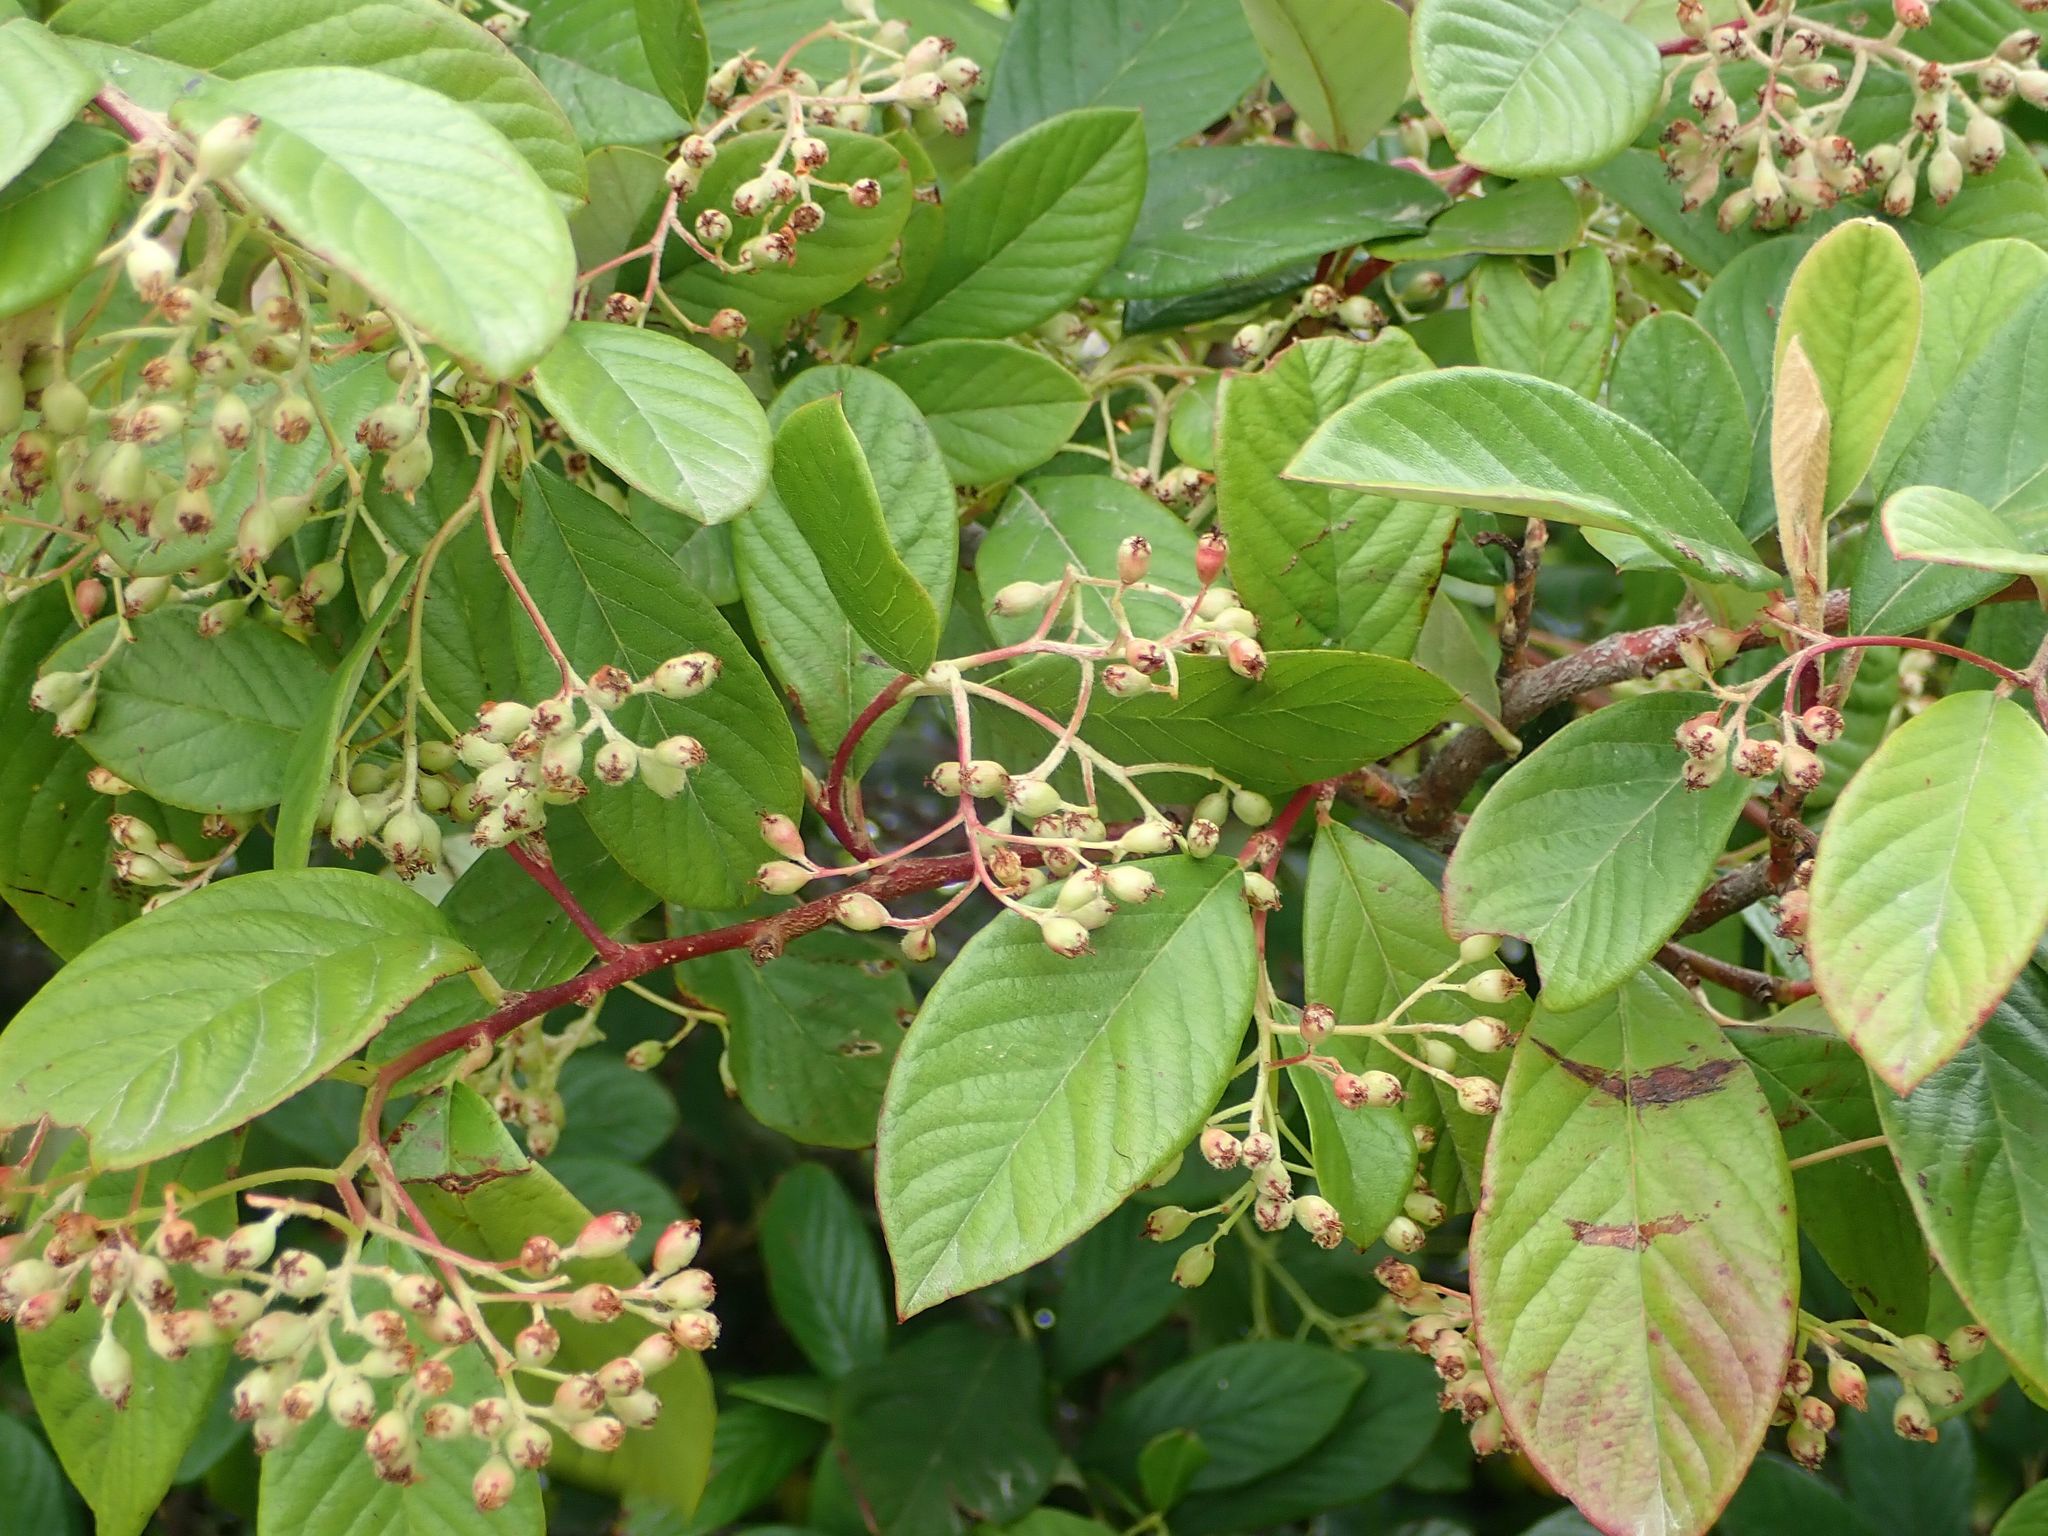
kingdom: Plantae
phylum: Tracheophyta
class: Magnoliopsida
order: Rosales
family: Rosaceae
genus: Cotoneaster
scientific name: Cotoneaster coriaceus
